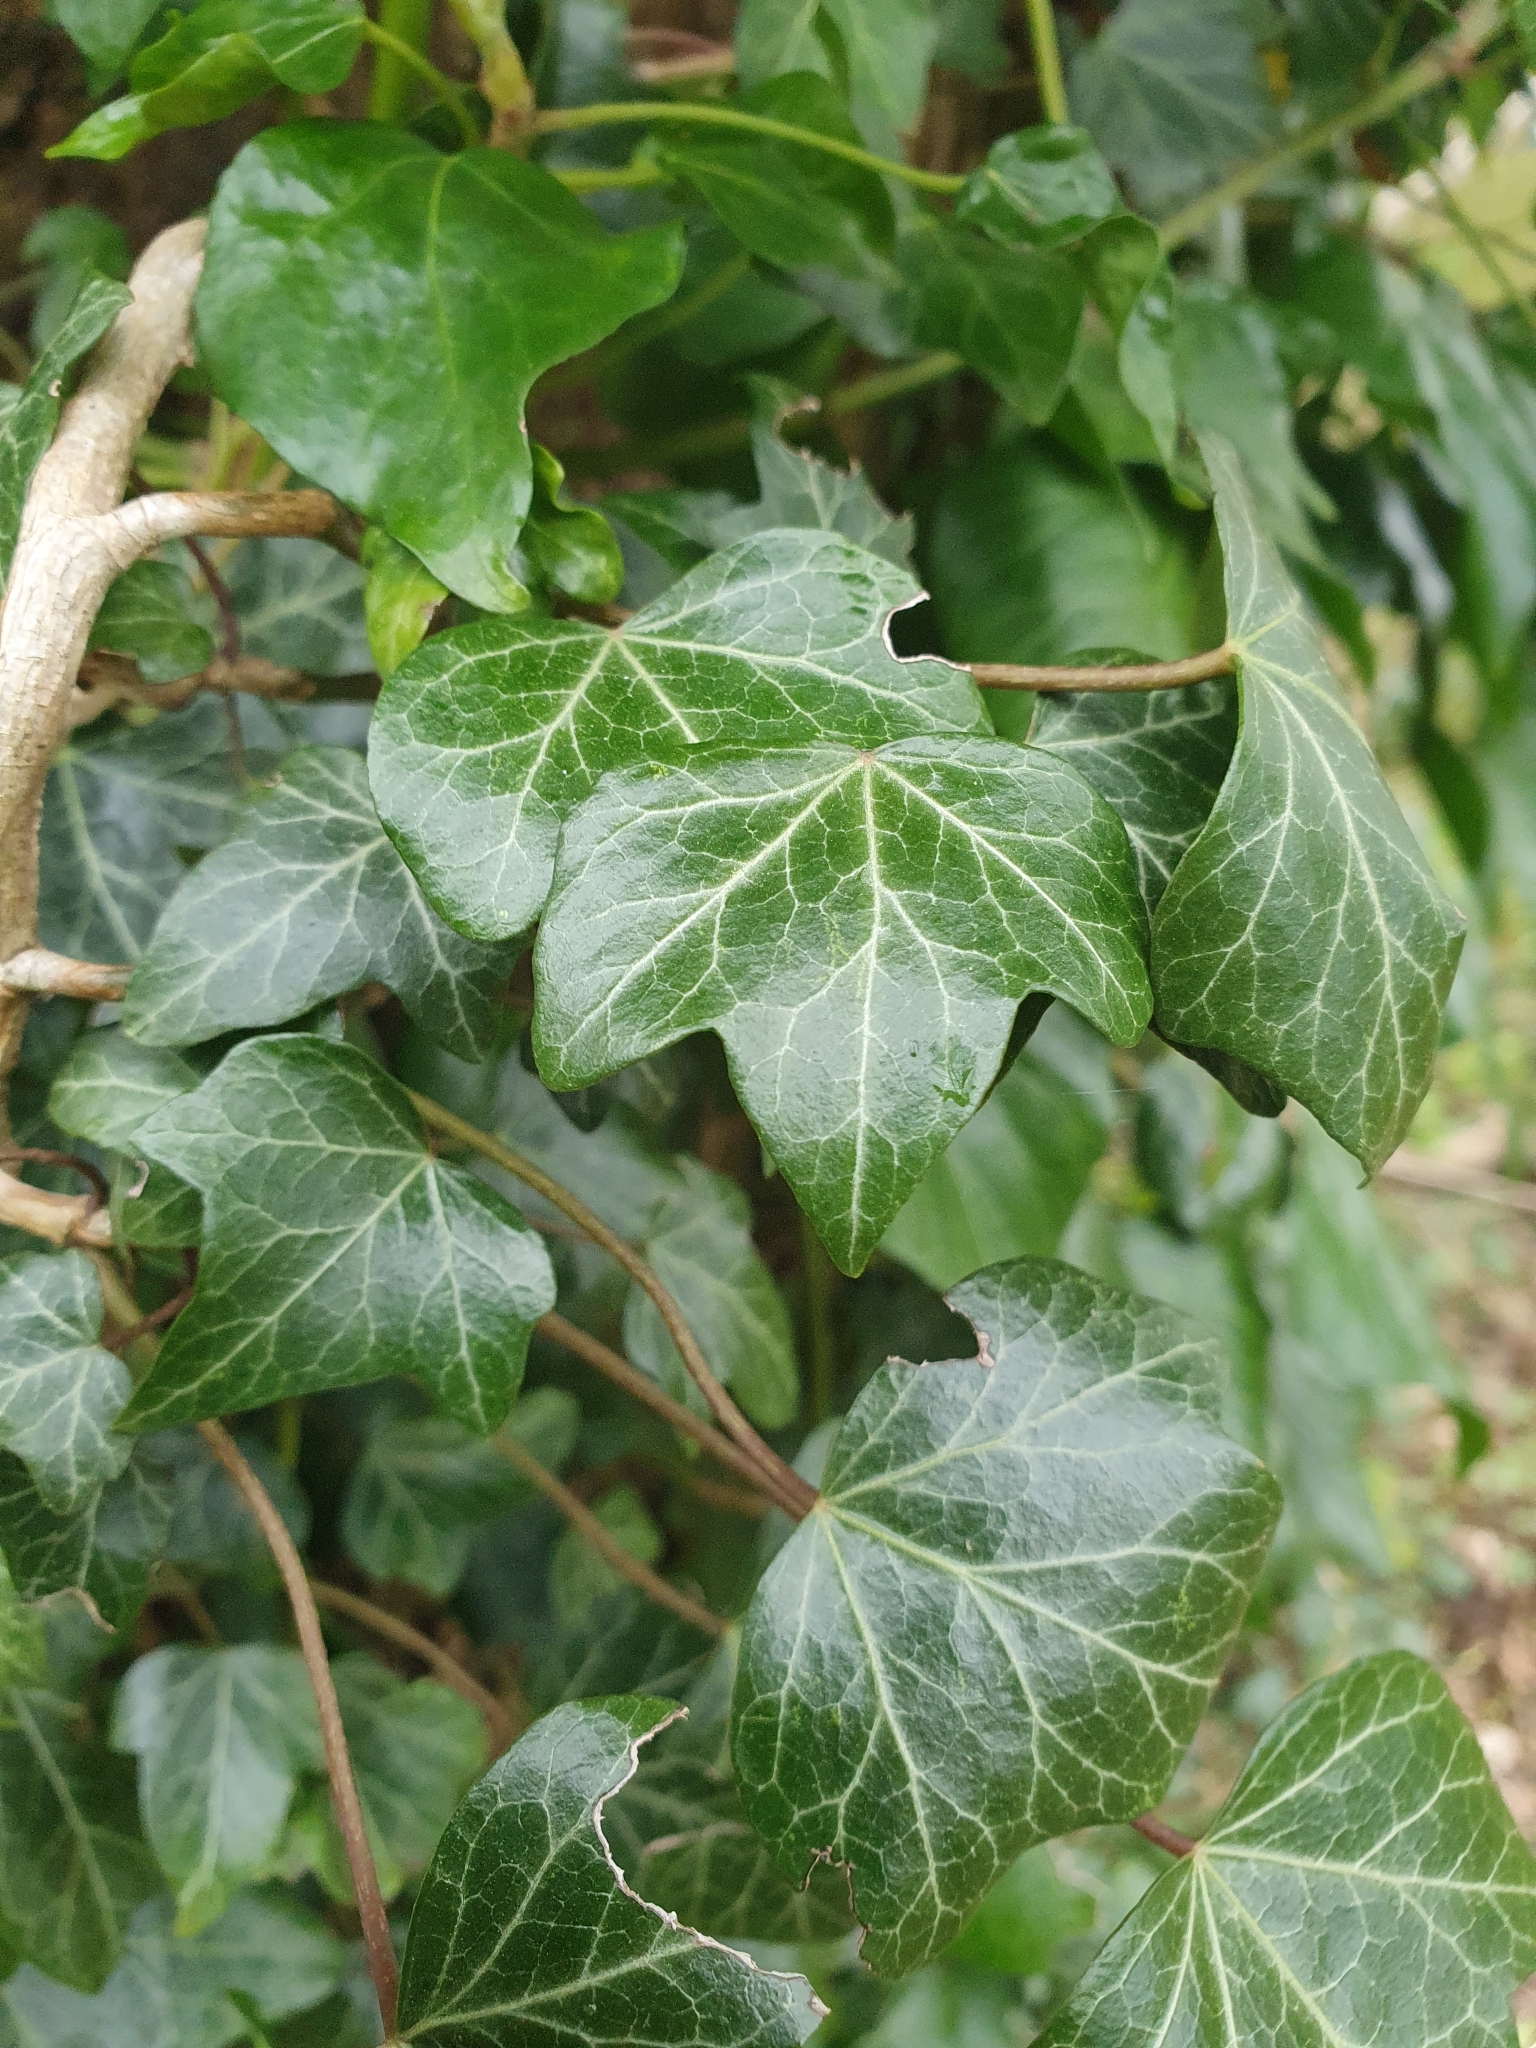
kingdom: Plantae
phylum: Tracheophyta
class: Magnoliopsida
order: Apiales
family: Araliaceae
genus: Hedera
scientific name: Hedera helix
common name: Ivy
